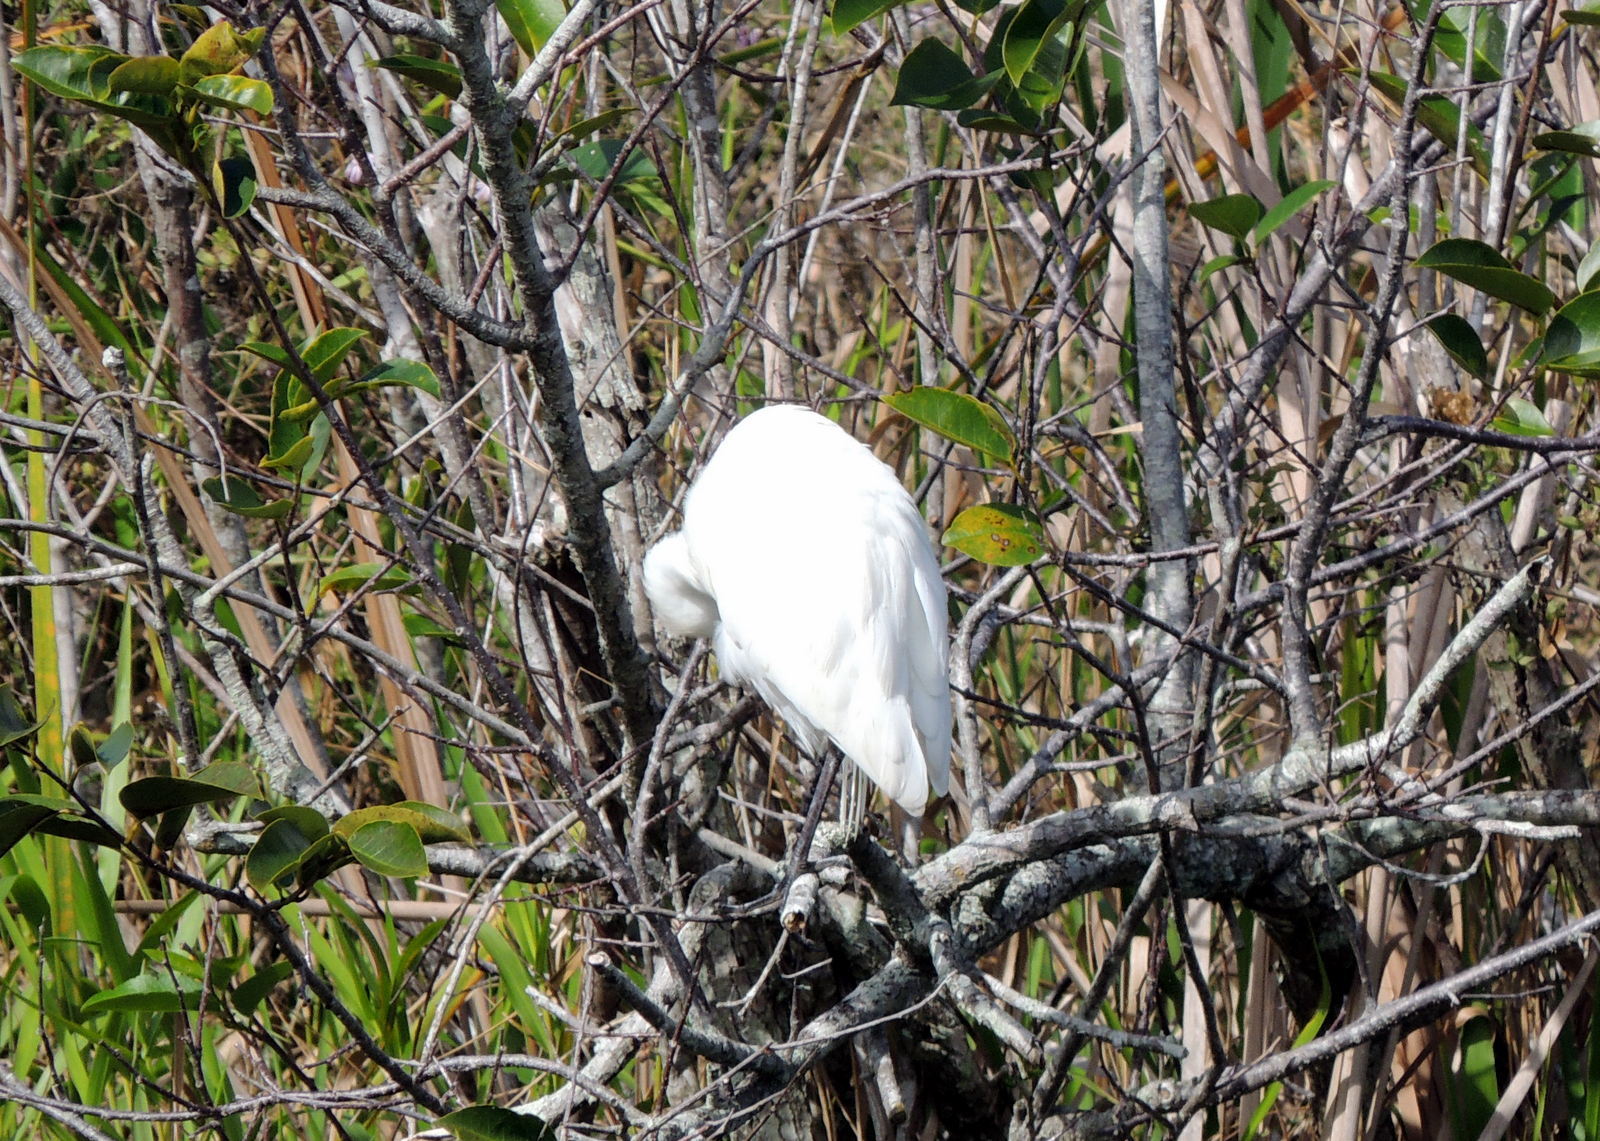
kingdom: Animalia
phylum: Chordata
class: Aves
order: Pelecaniformes
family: Ardeidae
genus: Ardea
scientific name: Ardea alba
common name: Great egret
